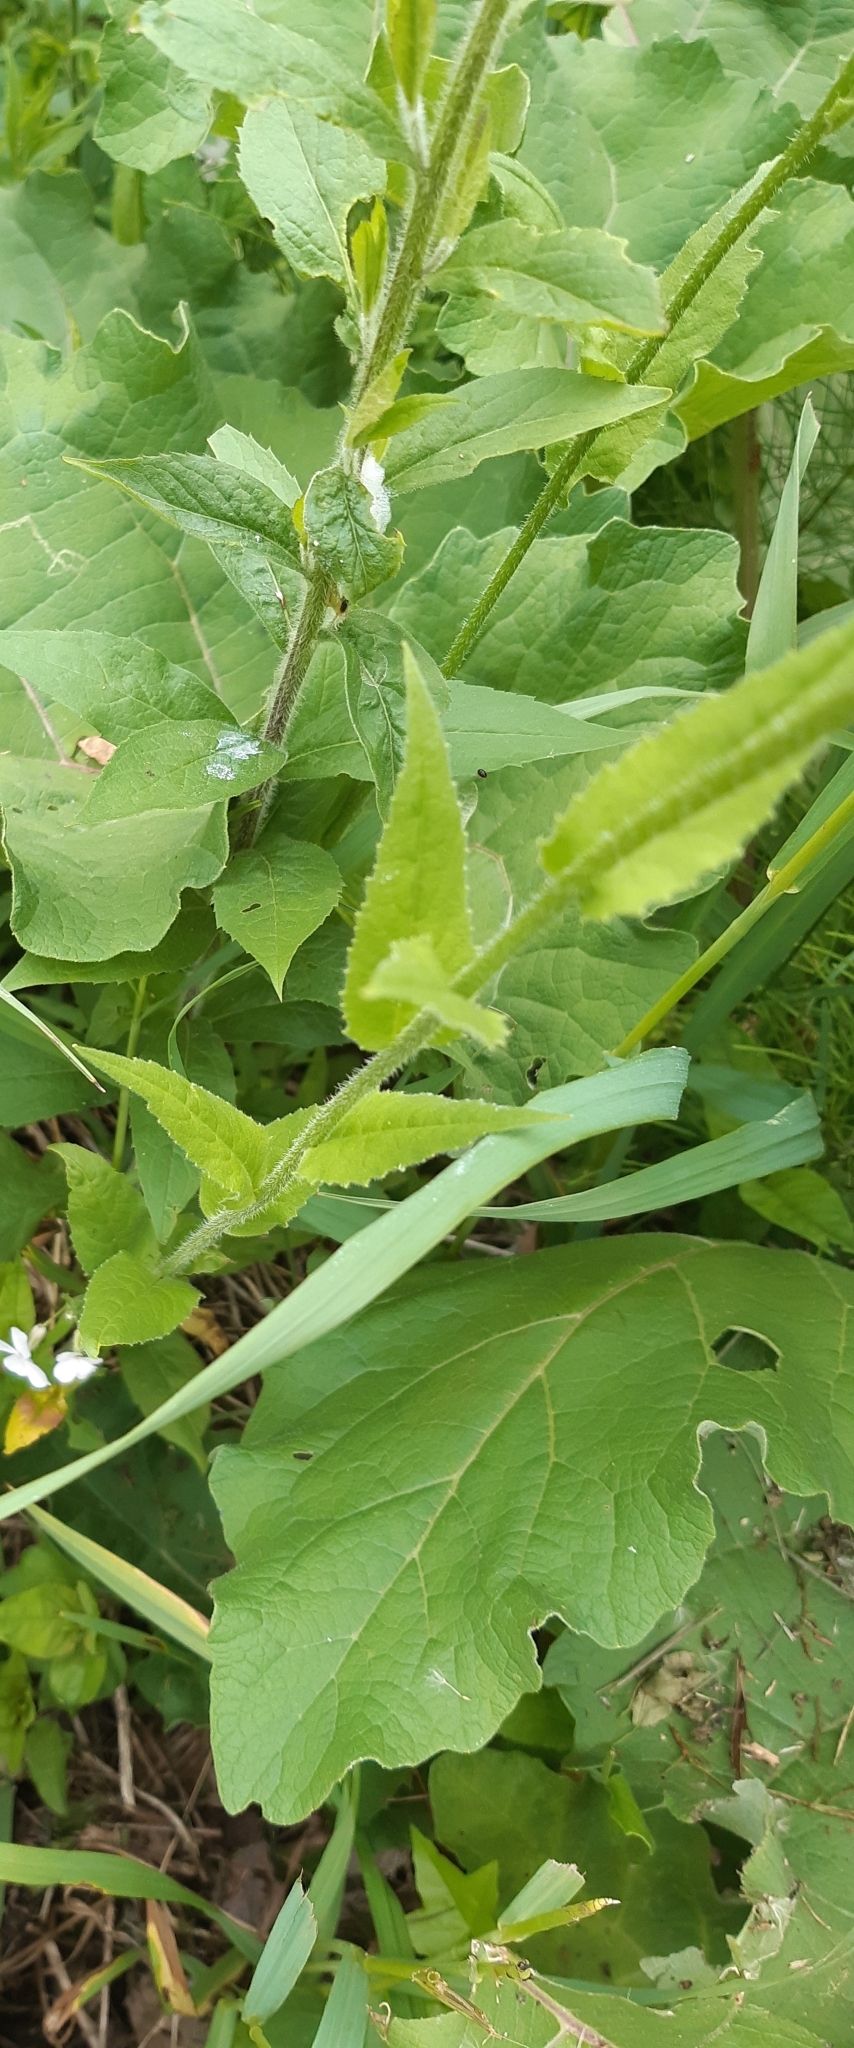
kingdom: Plantae
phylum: Tracheophyta
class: Magnoliopsida
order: Brassicales
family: Brassicaceae
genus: Hesperis
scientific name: Hesperis matronalis
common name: Dame's-violet
